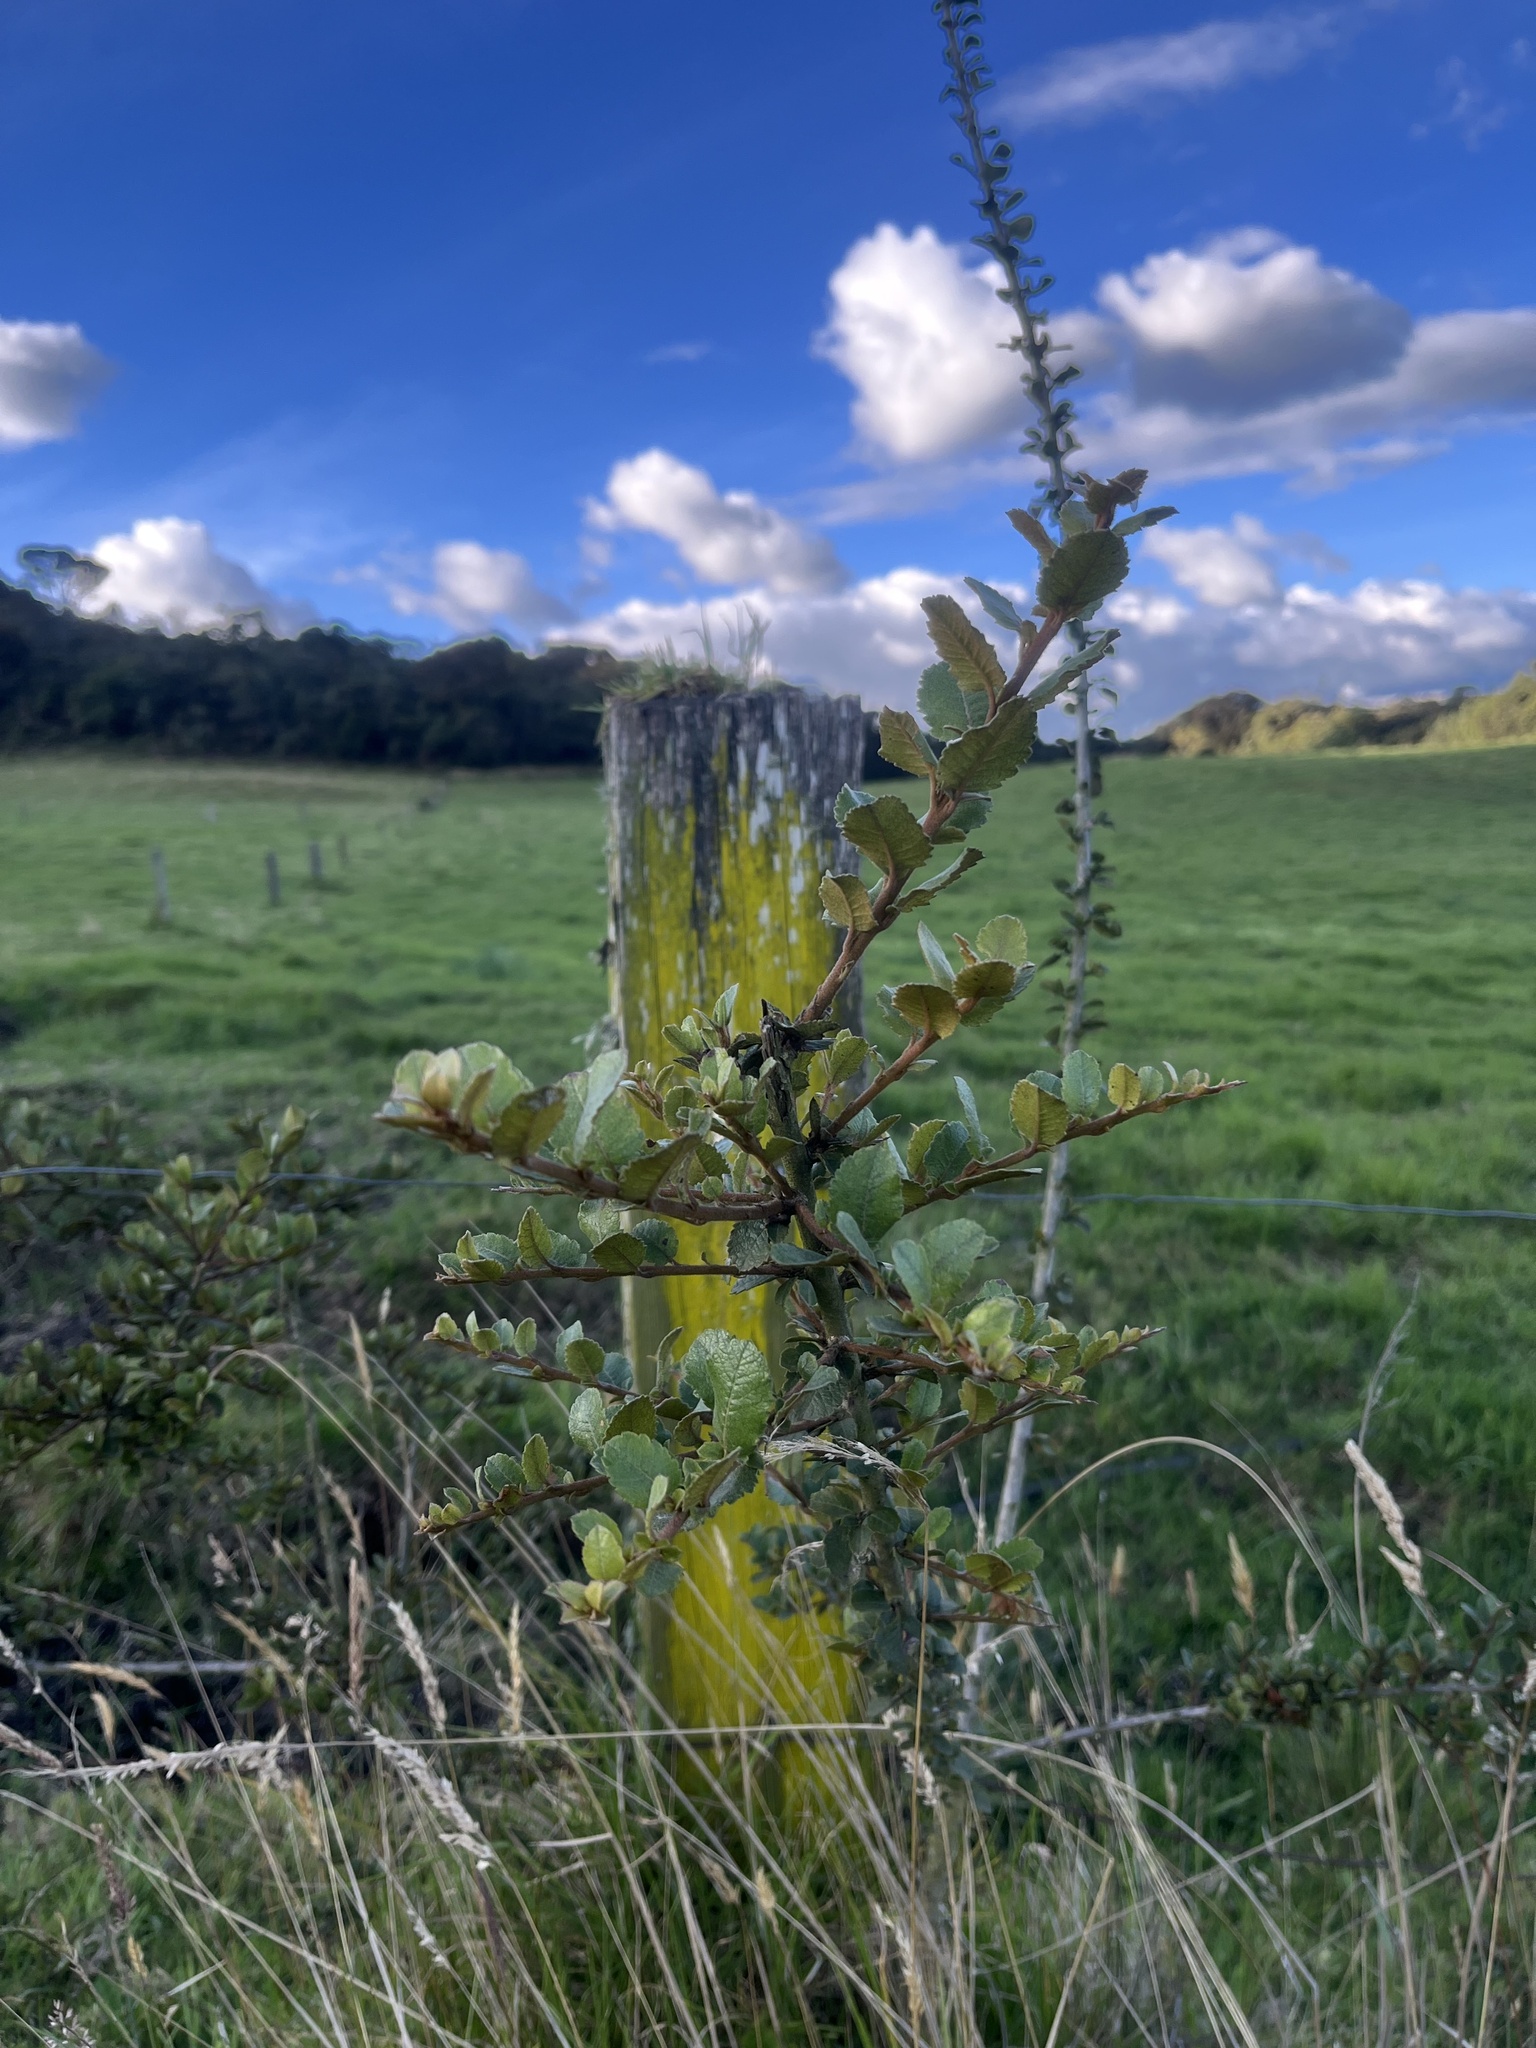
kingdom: Plantae
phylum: Tracheophyta
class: Magnoliopsida
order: Rosales
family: Rosaceae
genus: Hesperomeles
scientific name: Hesperomeles goudotiana
